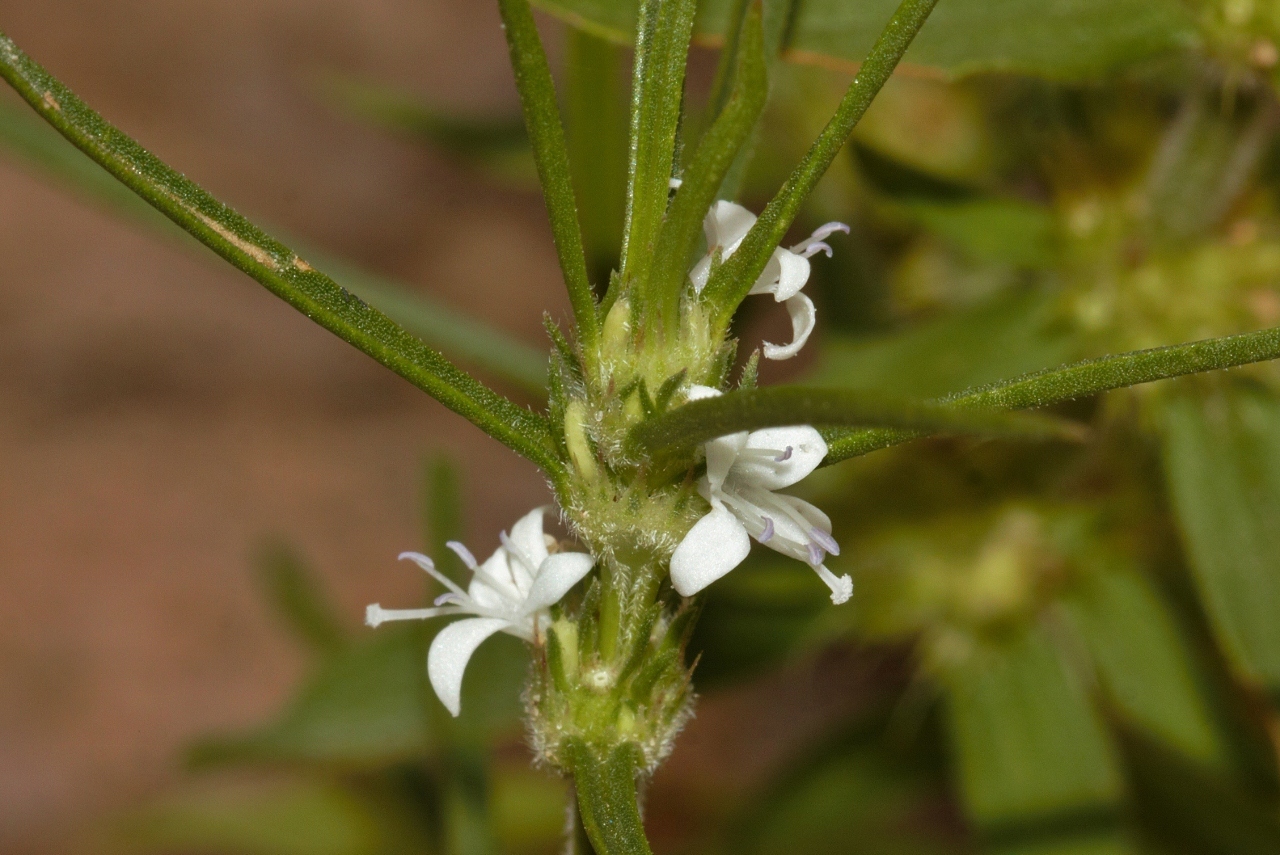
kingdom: Plantae
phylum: Tracheophyta
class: Magnoliopsida
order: Gentianales
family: Rubiaceae
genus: Spermacoce
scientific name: Spermacoce subvulgata
